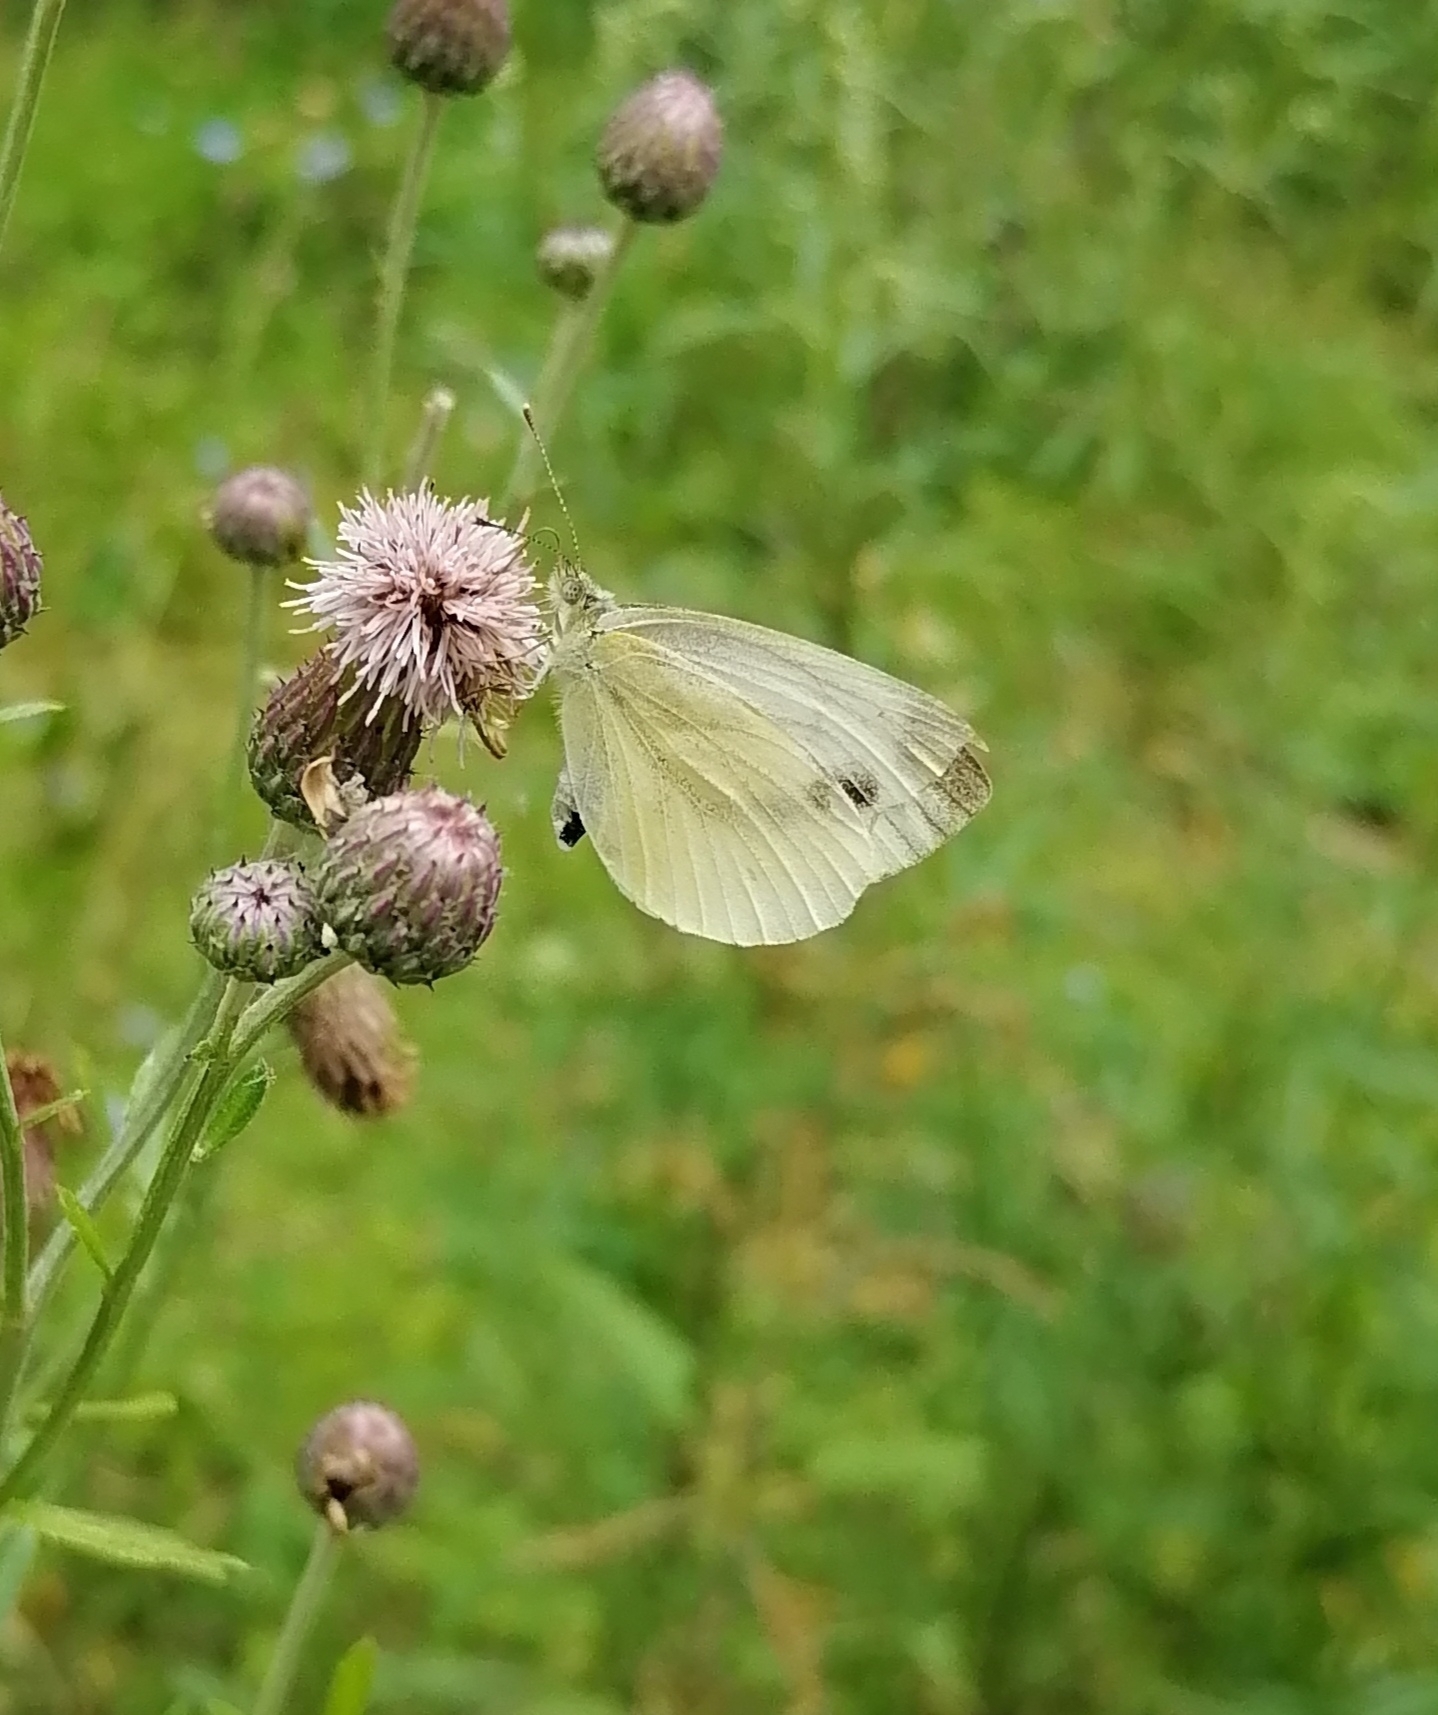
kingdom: Animalia
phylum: Arthropoda
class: Insecta
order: Lepidoptera
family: Pieridae
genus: Pieris
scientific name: Pieris napi
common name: Green-veined white
